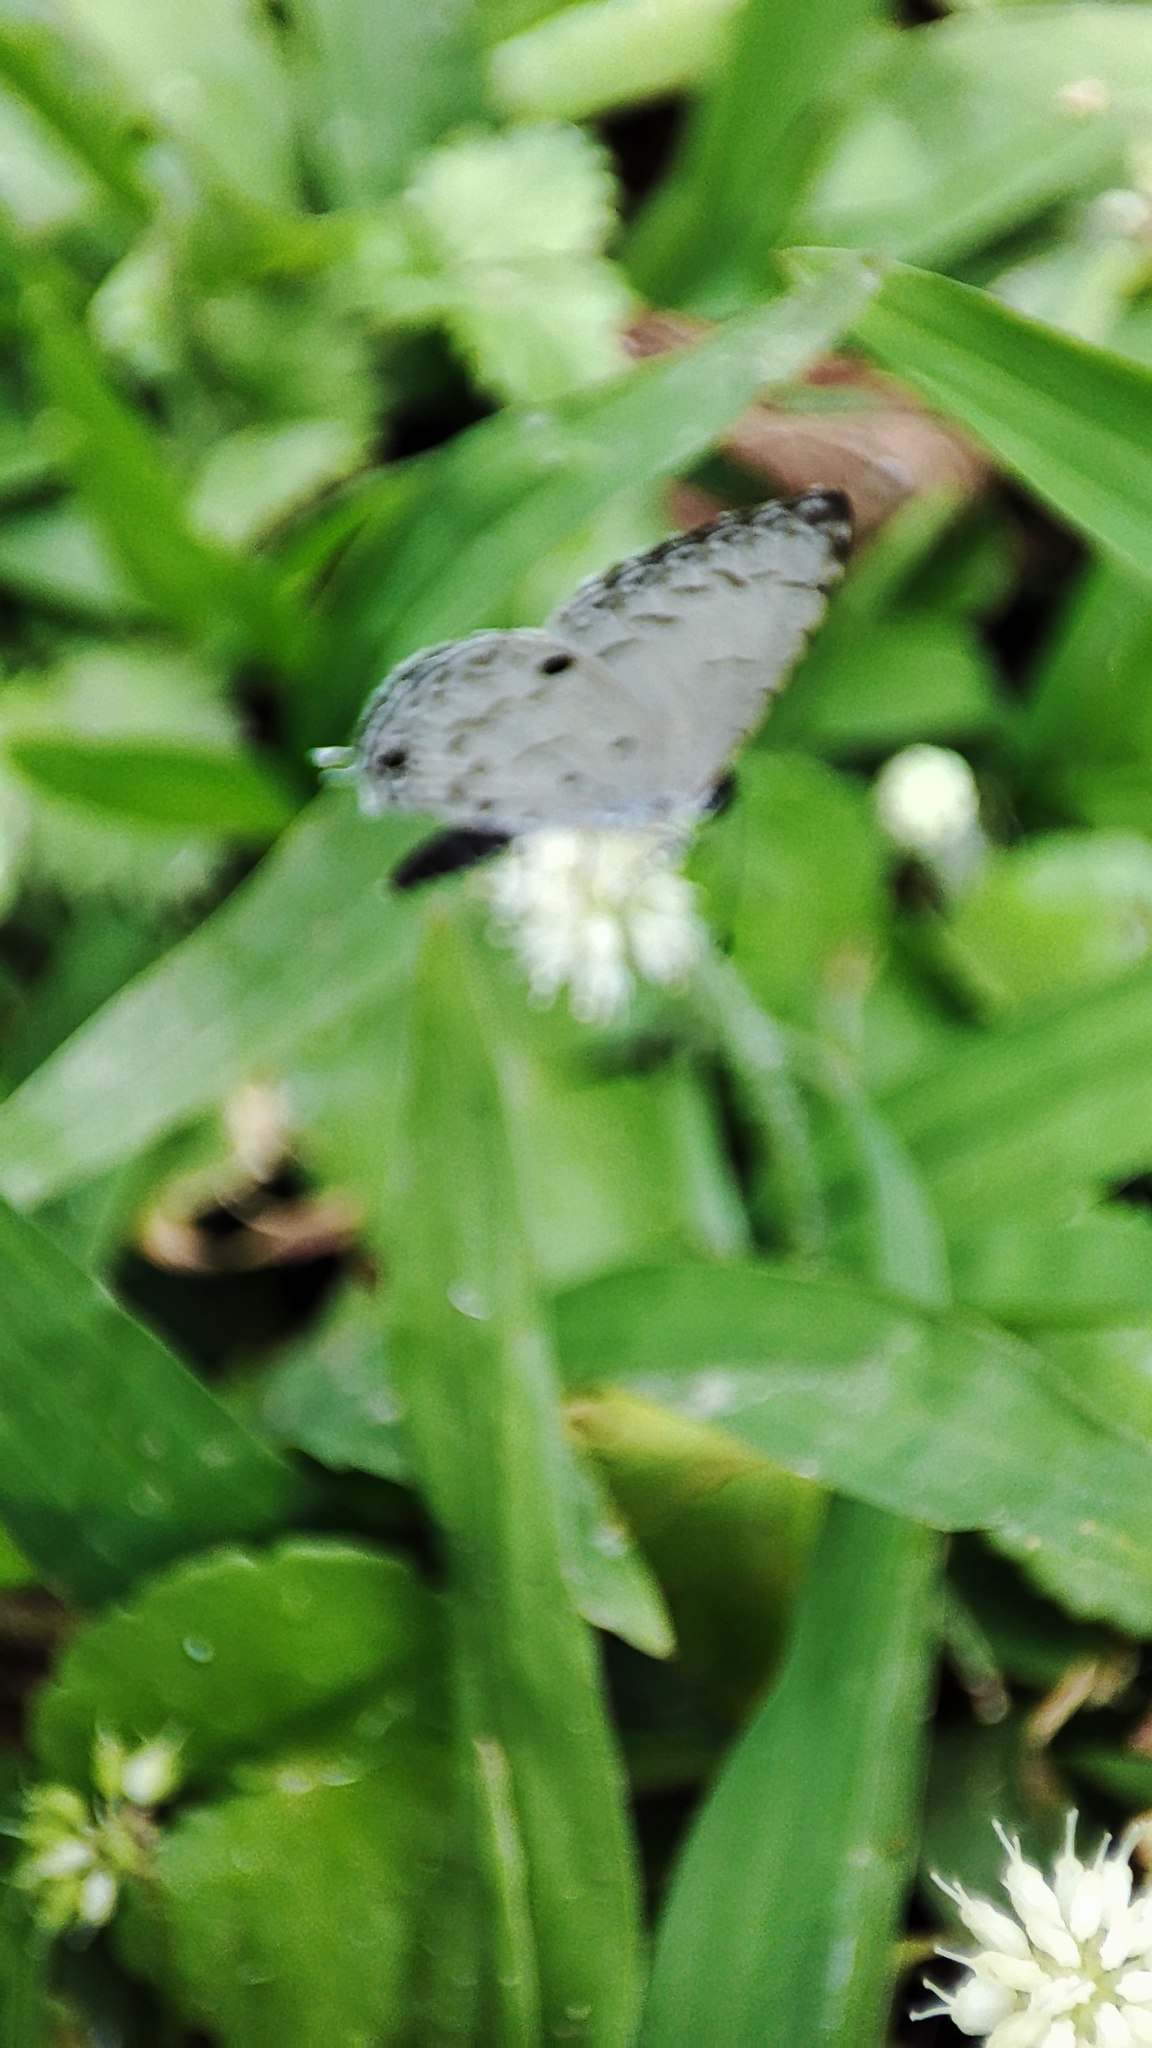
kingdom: Animalia
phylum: Arthropoda
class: Insecta
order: Lepidoptera
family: Lycaenidae
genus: Megisba
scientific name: Megisba malaya
